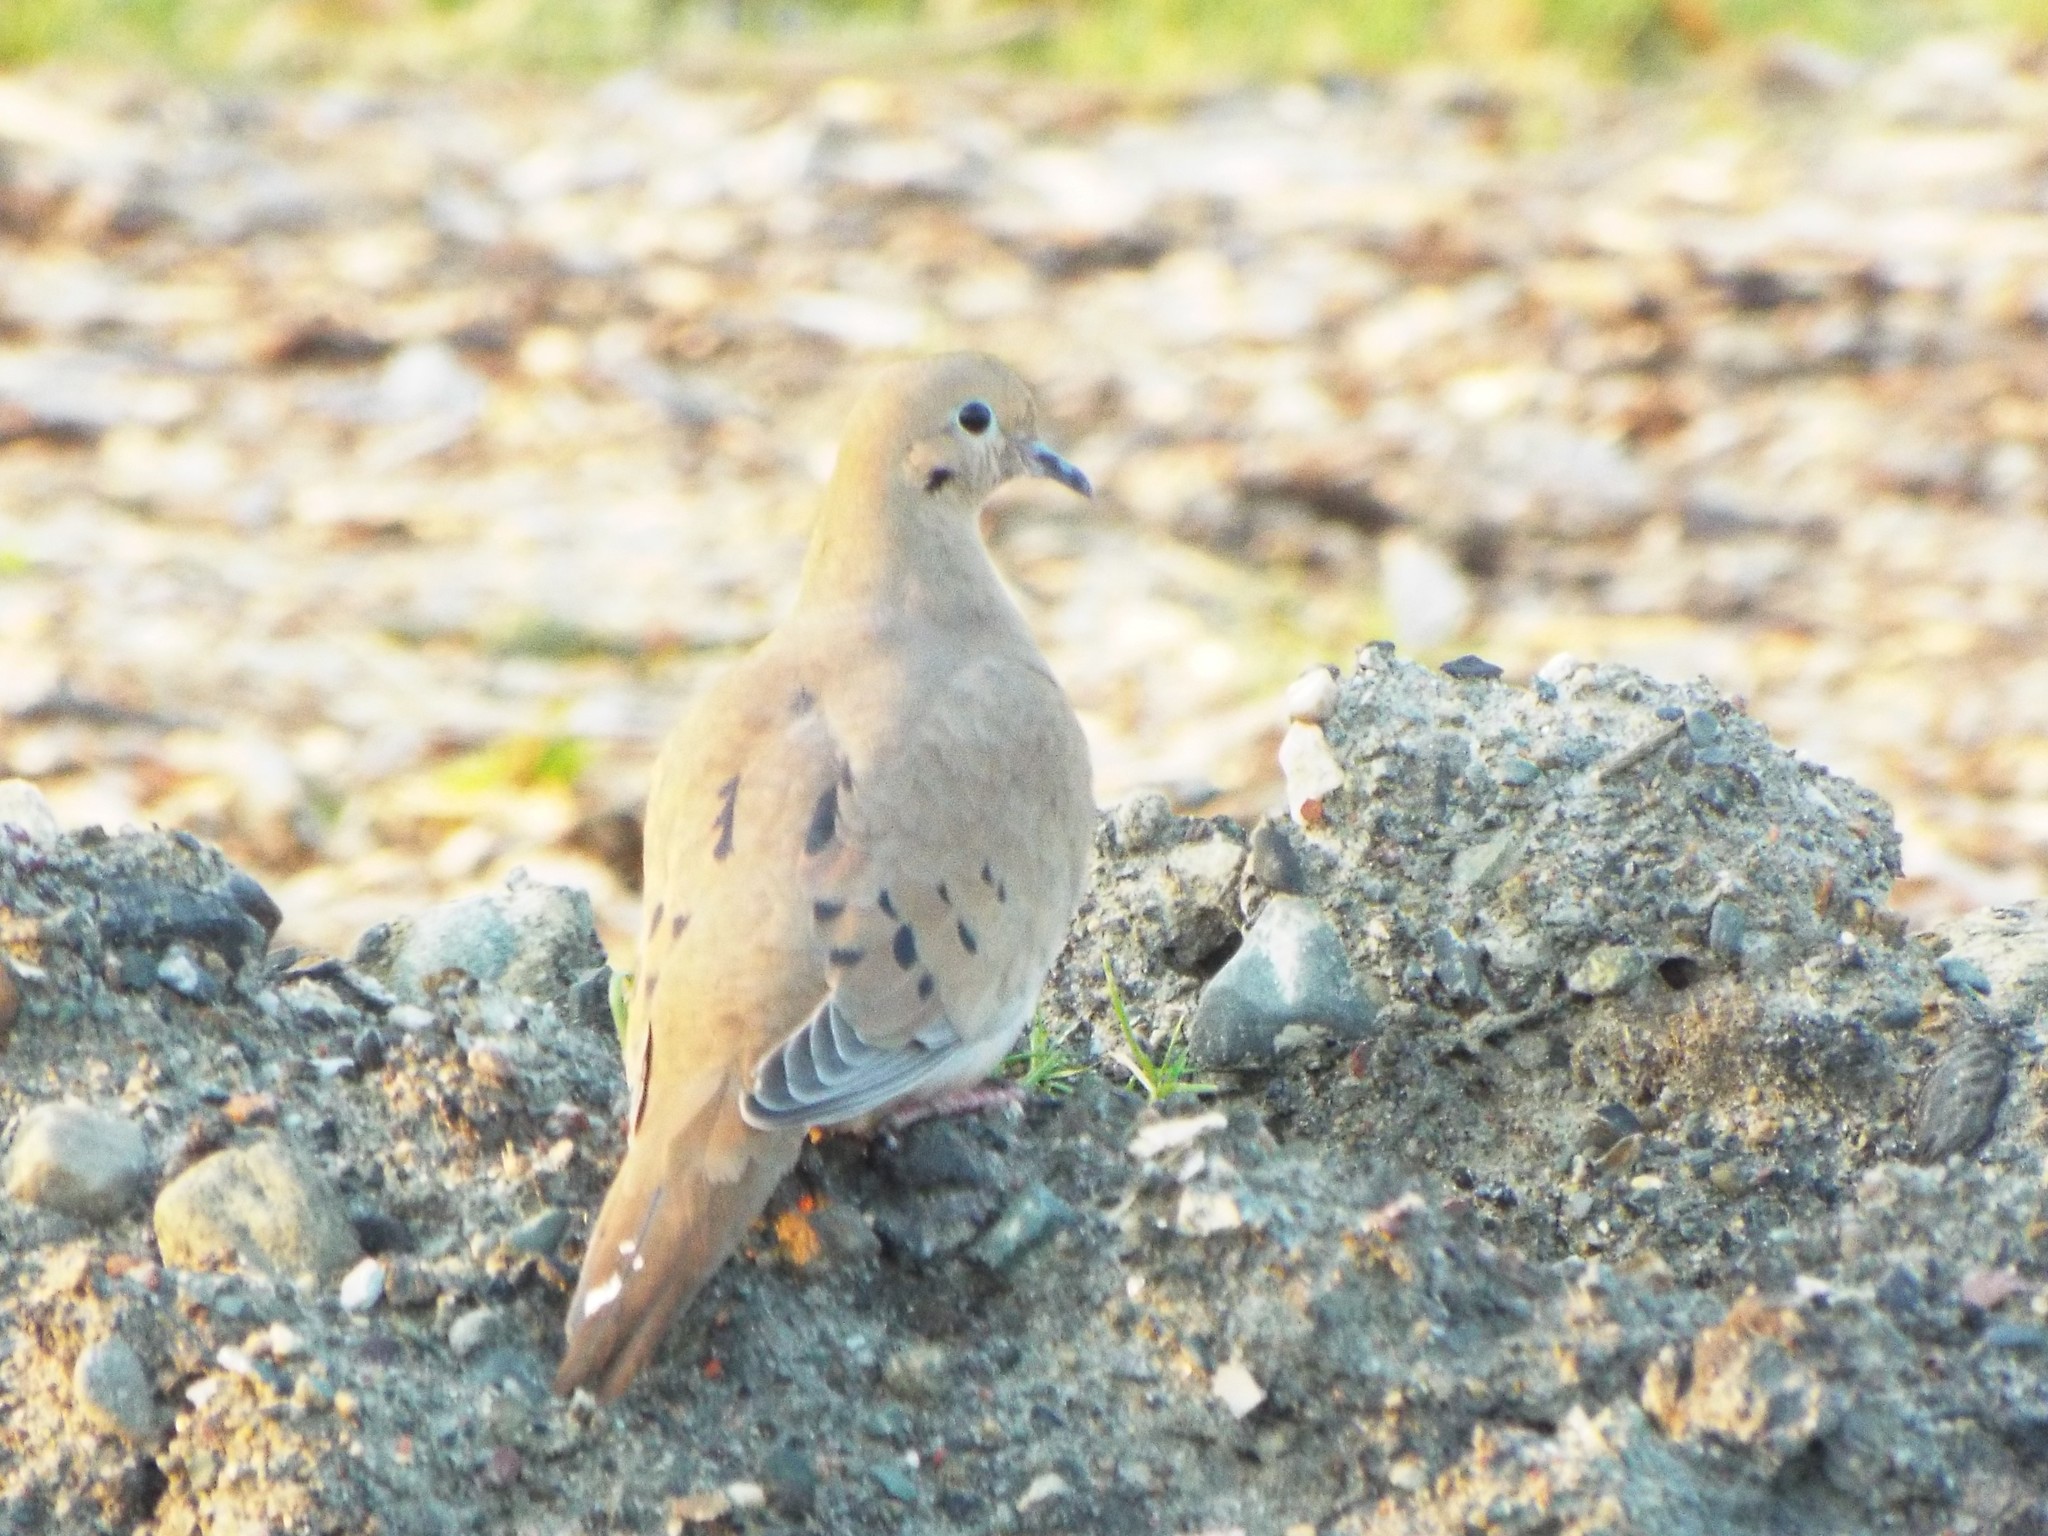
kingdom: Animalia
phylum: Chordata
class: Aves
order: Columbiformes
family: Columbidae
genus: Zenaida
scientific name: Zenaida macroura
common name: Mourning dove
